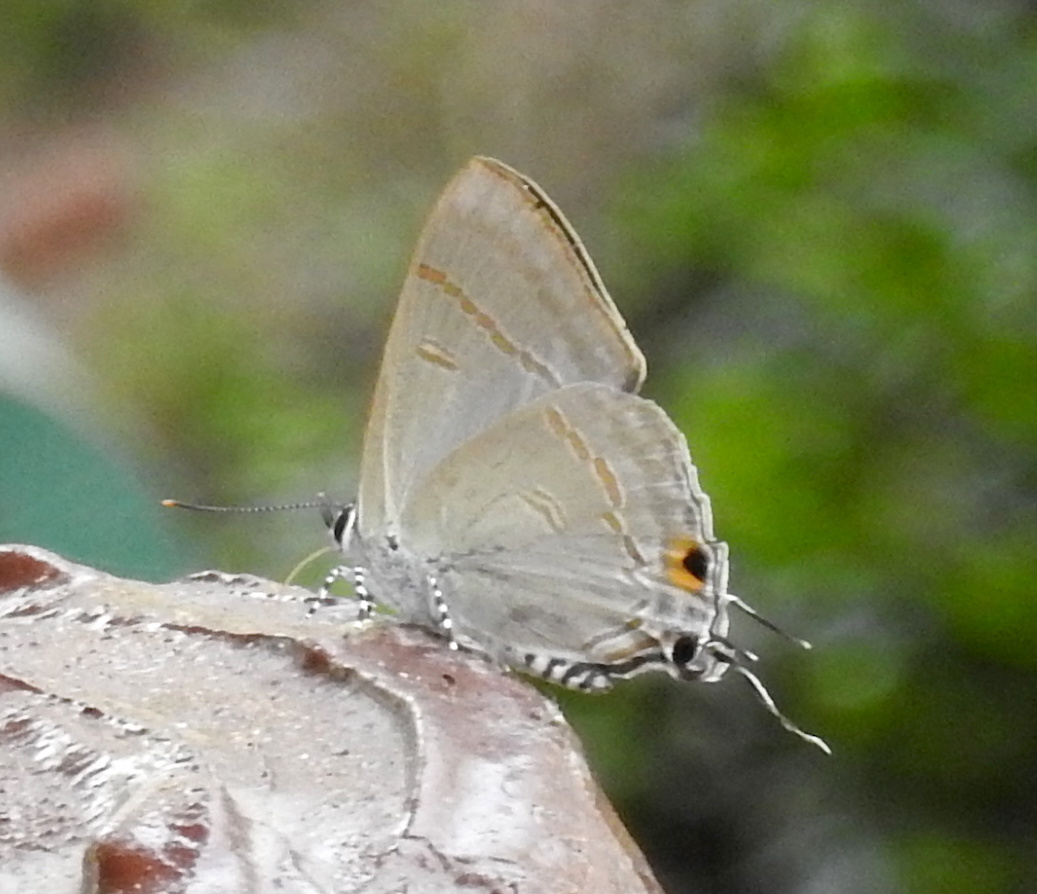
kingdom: Animalia
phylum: Arthropoda
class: Insecta
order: Lepidoptera
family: Lycaenidae
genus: Hypolycaena
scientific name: Hypolycaena erylus
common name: Common tit
